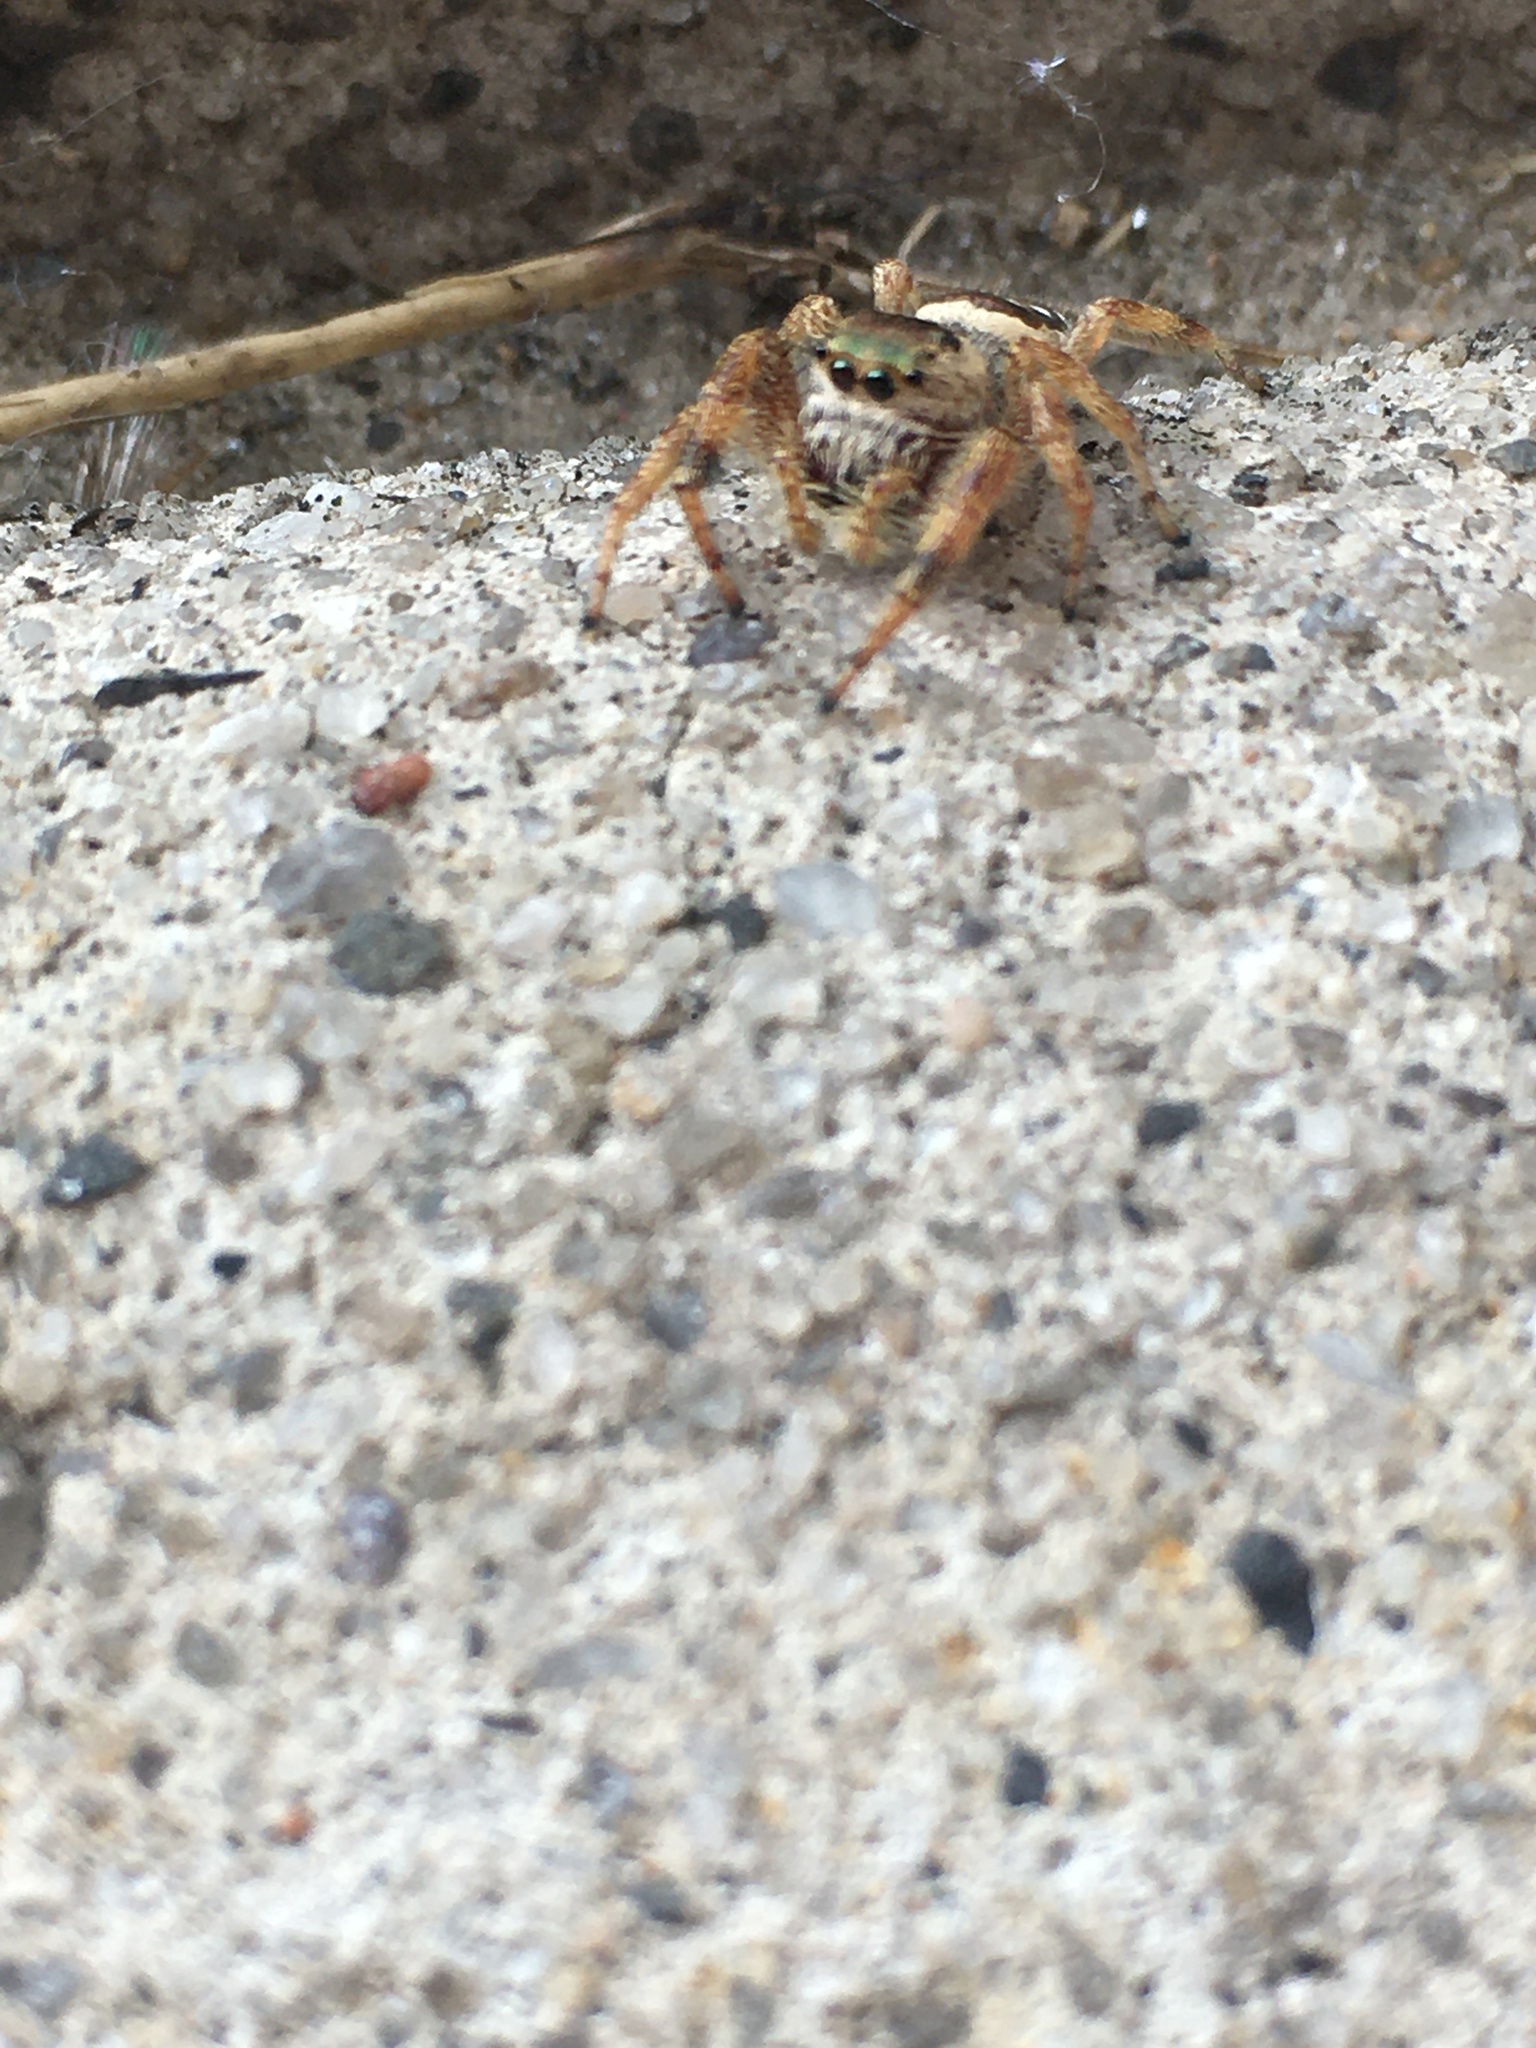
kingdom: Animalia
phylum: Arthropoda
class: Arachnida
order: Araneae
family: Salticidae
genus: Paraphidippus
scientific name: Paraphidippus aurantius
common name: Jumping spiders
